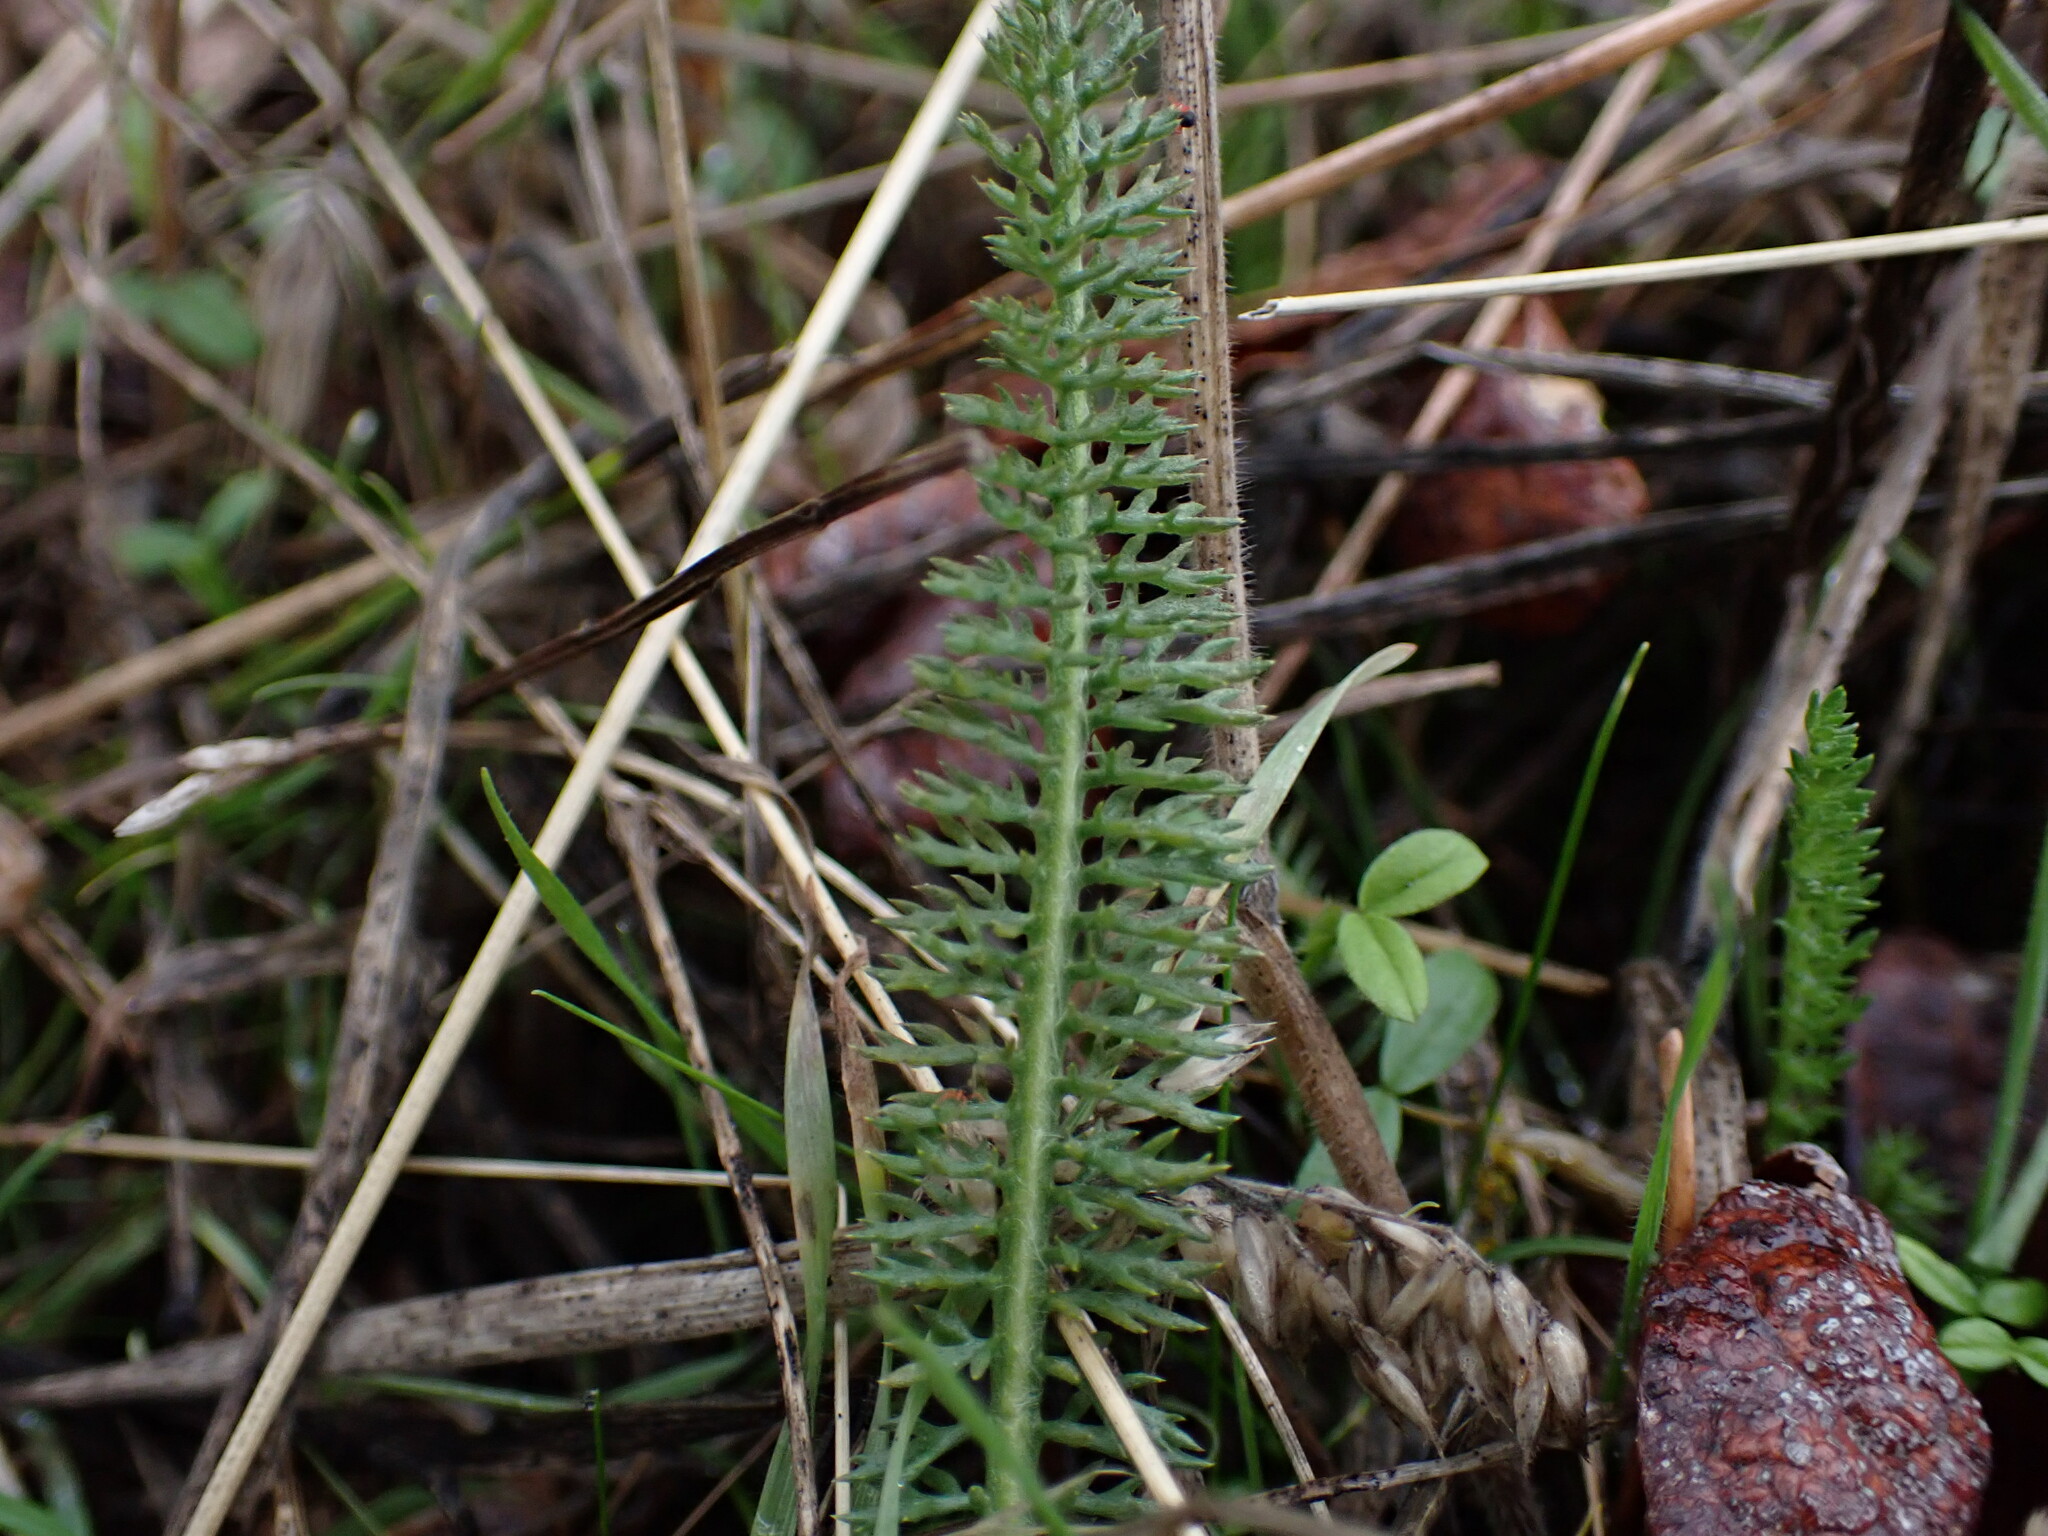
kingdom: Plantae
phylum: Tracheophyta
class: Magnoliopsida
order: Asterales
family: Asteraceae
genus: Achillea
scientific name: Achillea millefolium
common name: Yarrow
